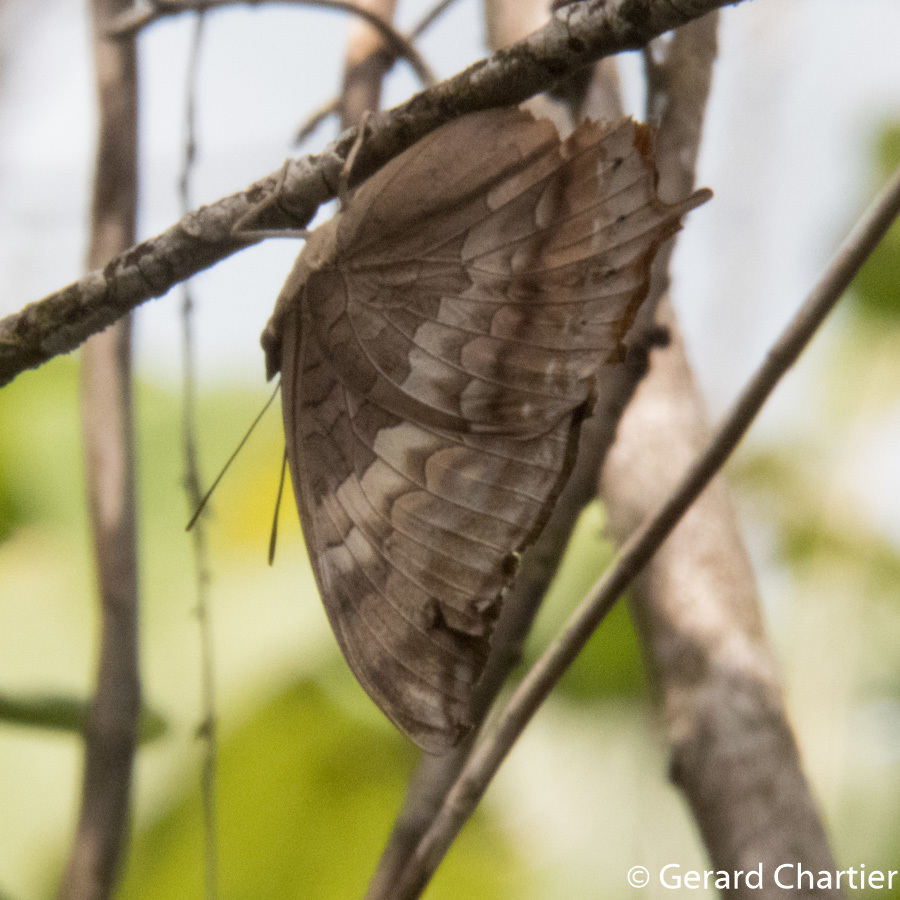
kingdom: Animalia
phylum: Arthropoda
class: Insecta
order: Lepidoptera
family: Nymphalidae
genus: Charaxes
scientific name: Charaxes bernardus
